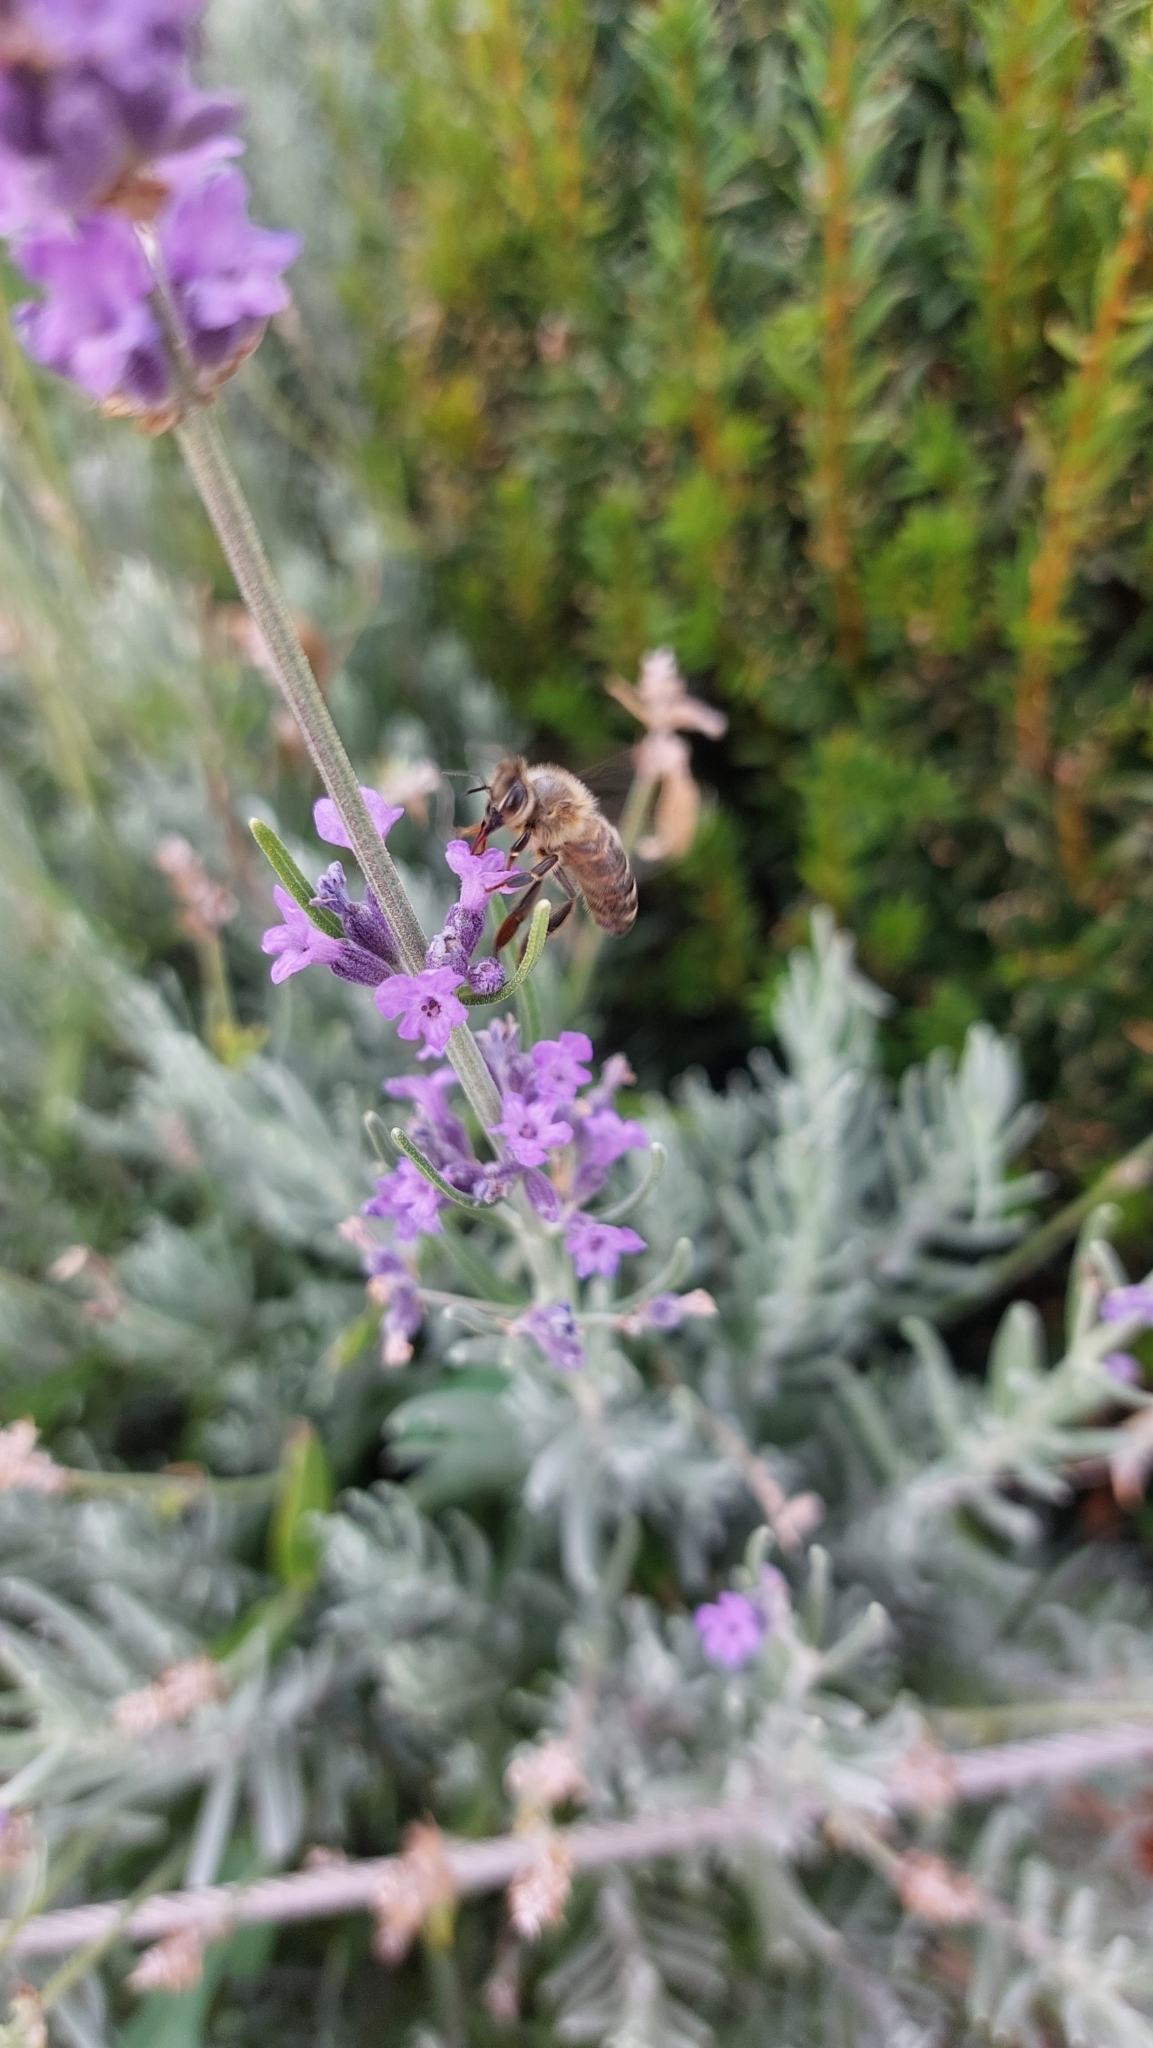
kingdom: Animalia
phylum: Arthropoda
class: Insecta
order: Hymenoptera
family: Apidae
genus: Apis
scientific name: Apis mellifera
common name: Honey bee
